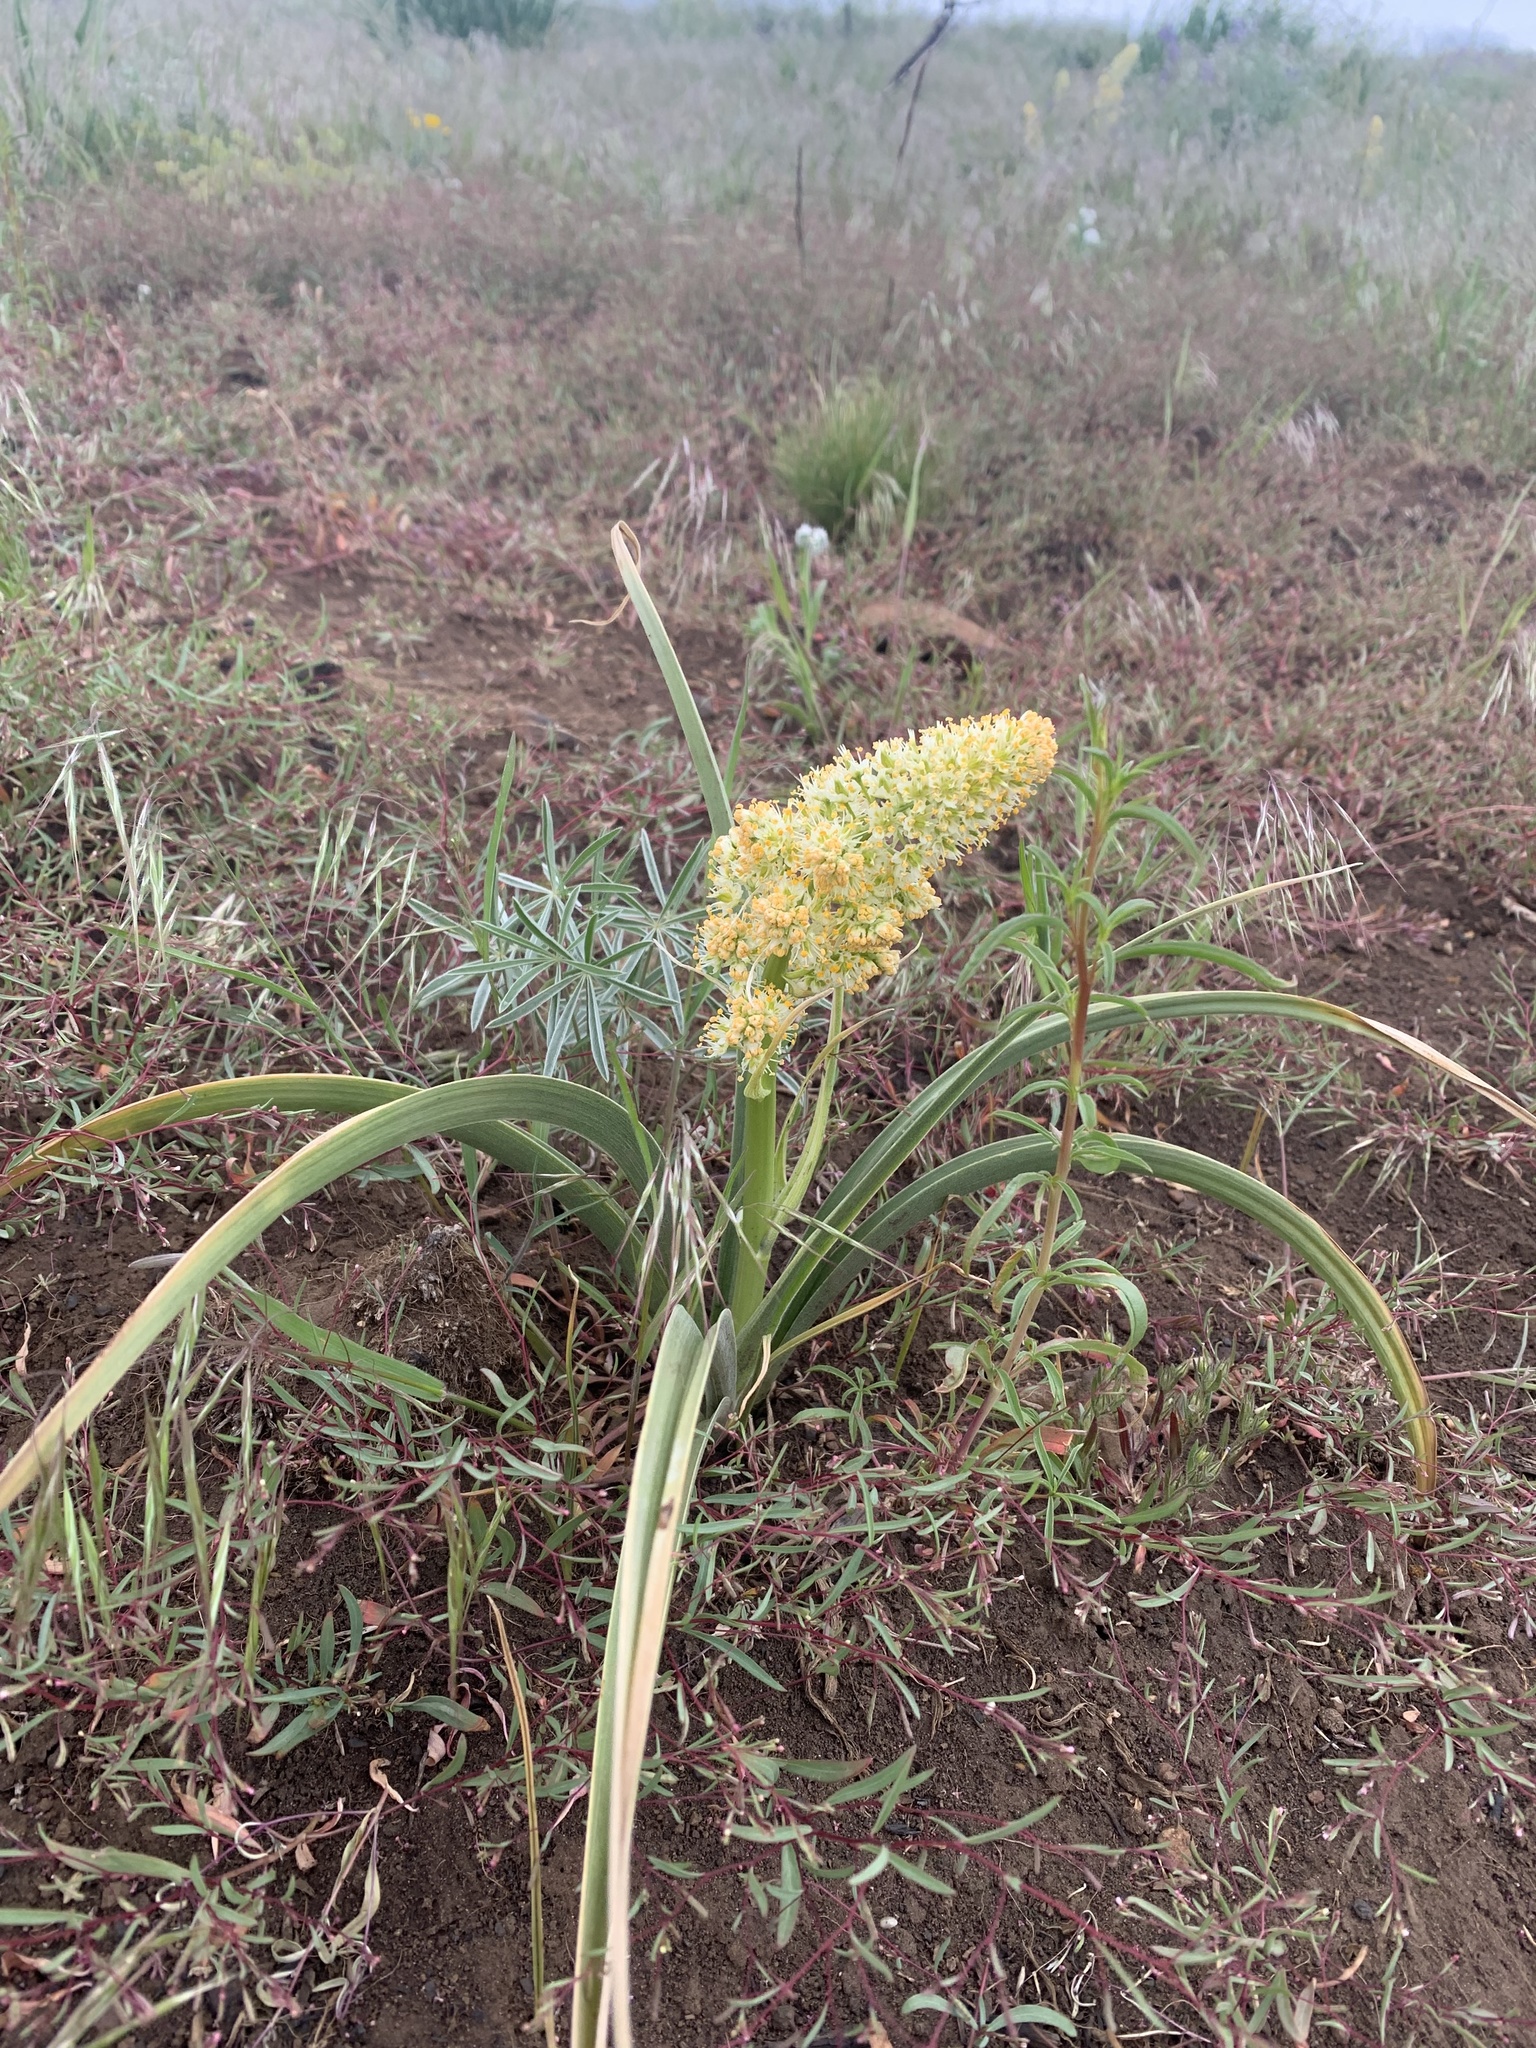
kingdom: Plantae
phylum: Tracheophyta
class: Liliopsida
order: Liliales
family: Melanthiaceae
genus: Toxicoscordion
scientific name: Toxicoscordion paniculatum
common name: Foothill death camas
